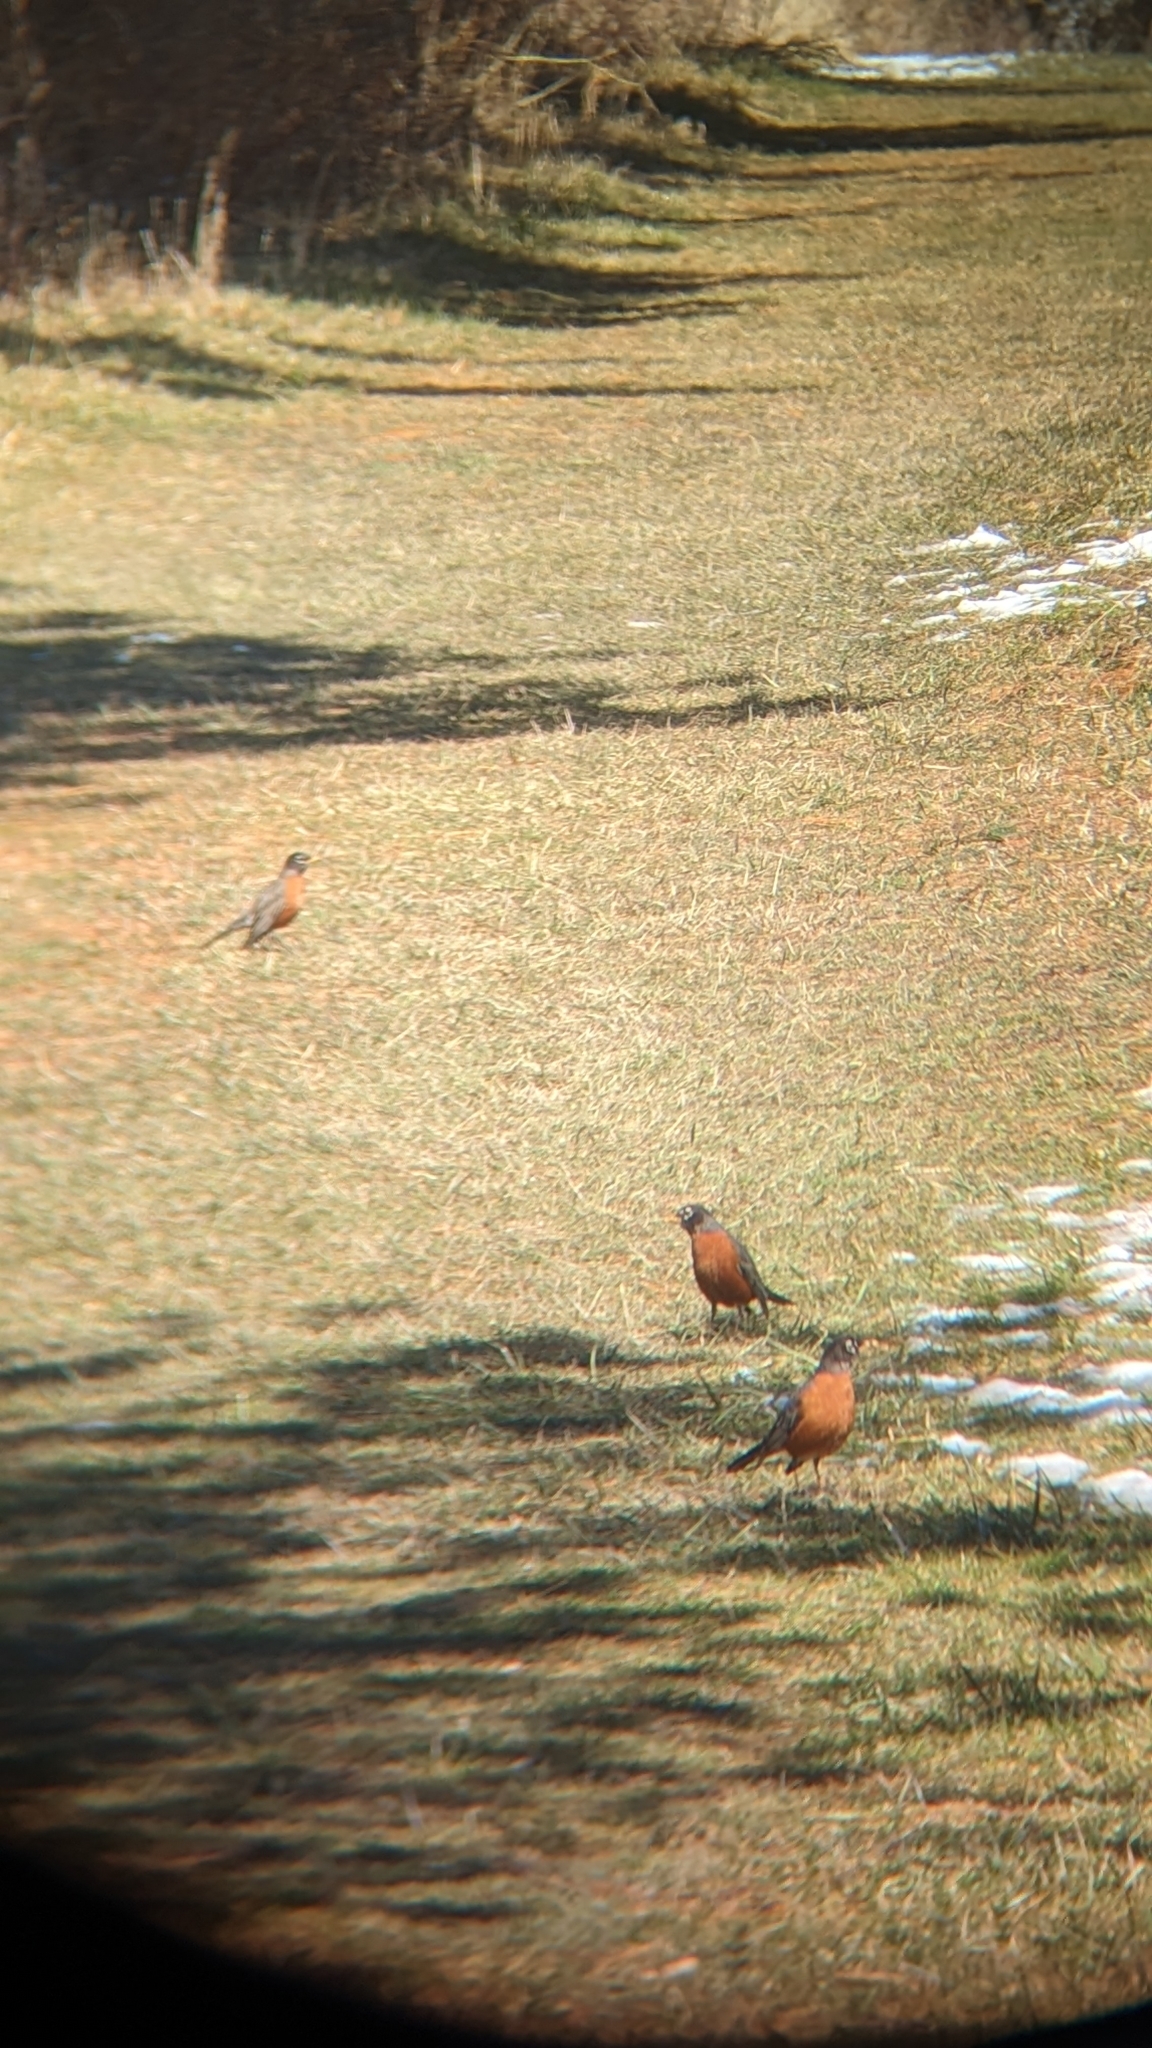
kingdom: Animalia
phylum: Chordata
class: Aves
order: Passeriformes
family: Turdidae
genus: Turdus
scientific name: Turdus migratorius
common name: American robin
